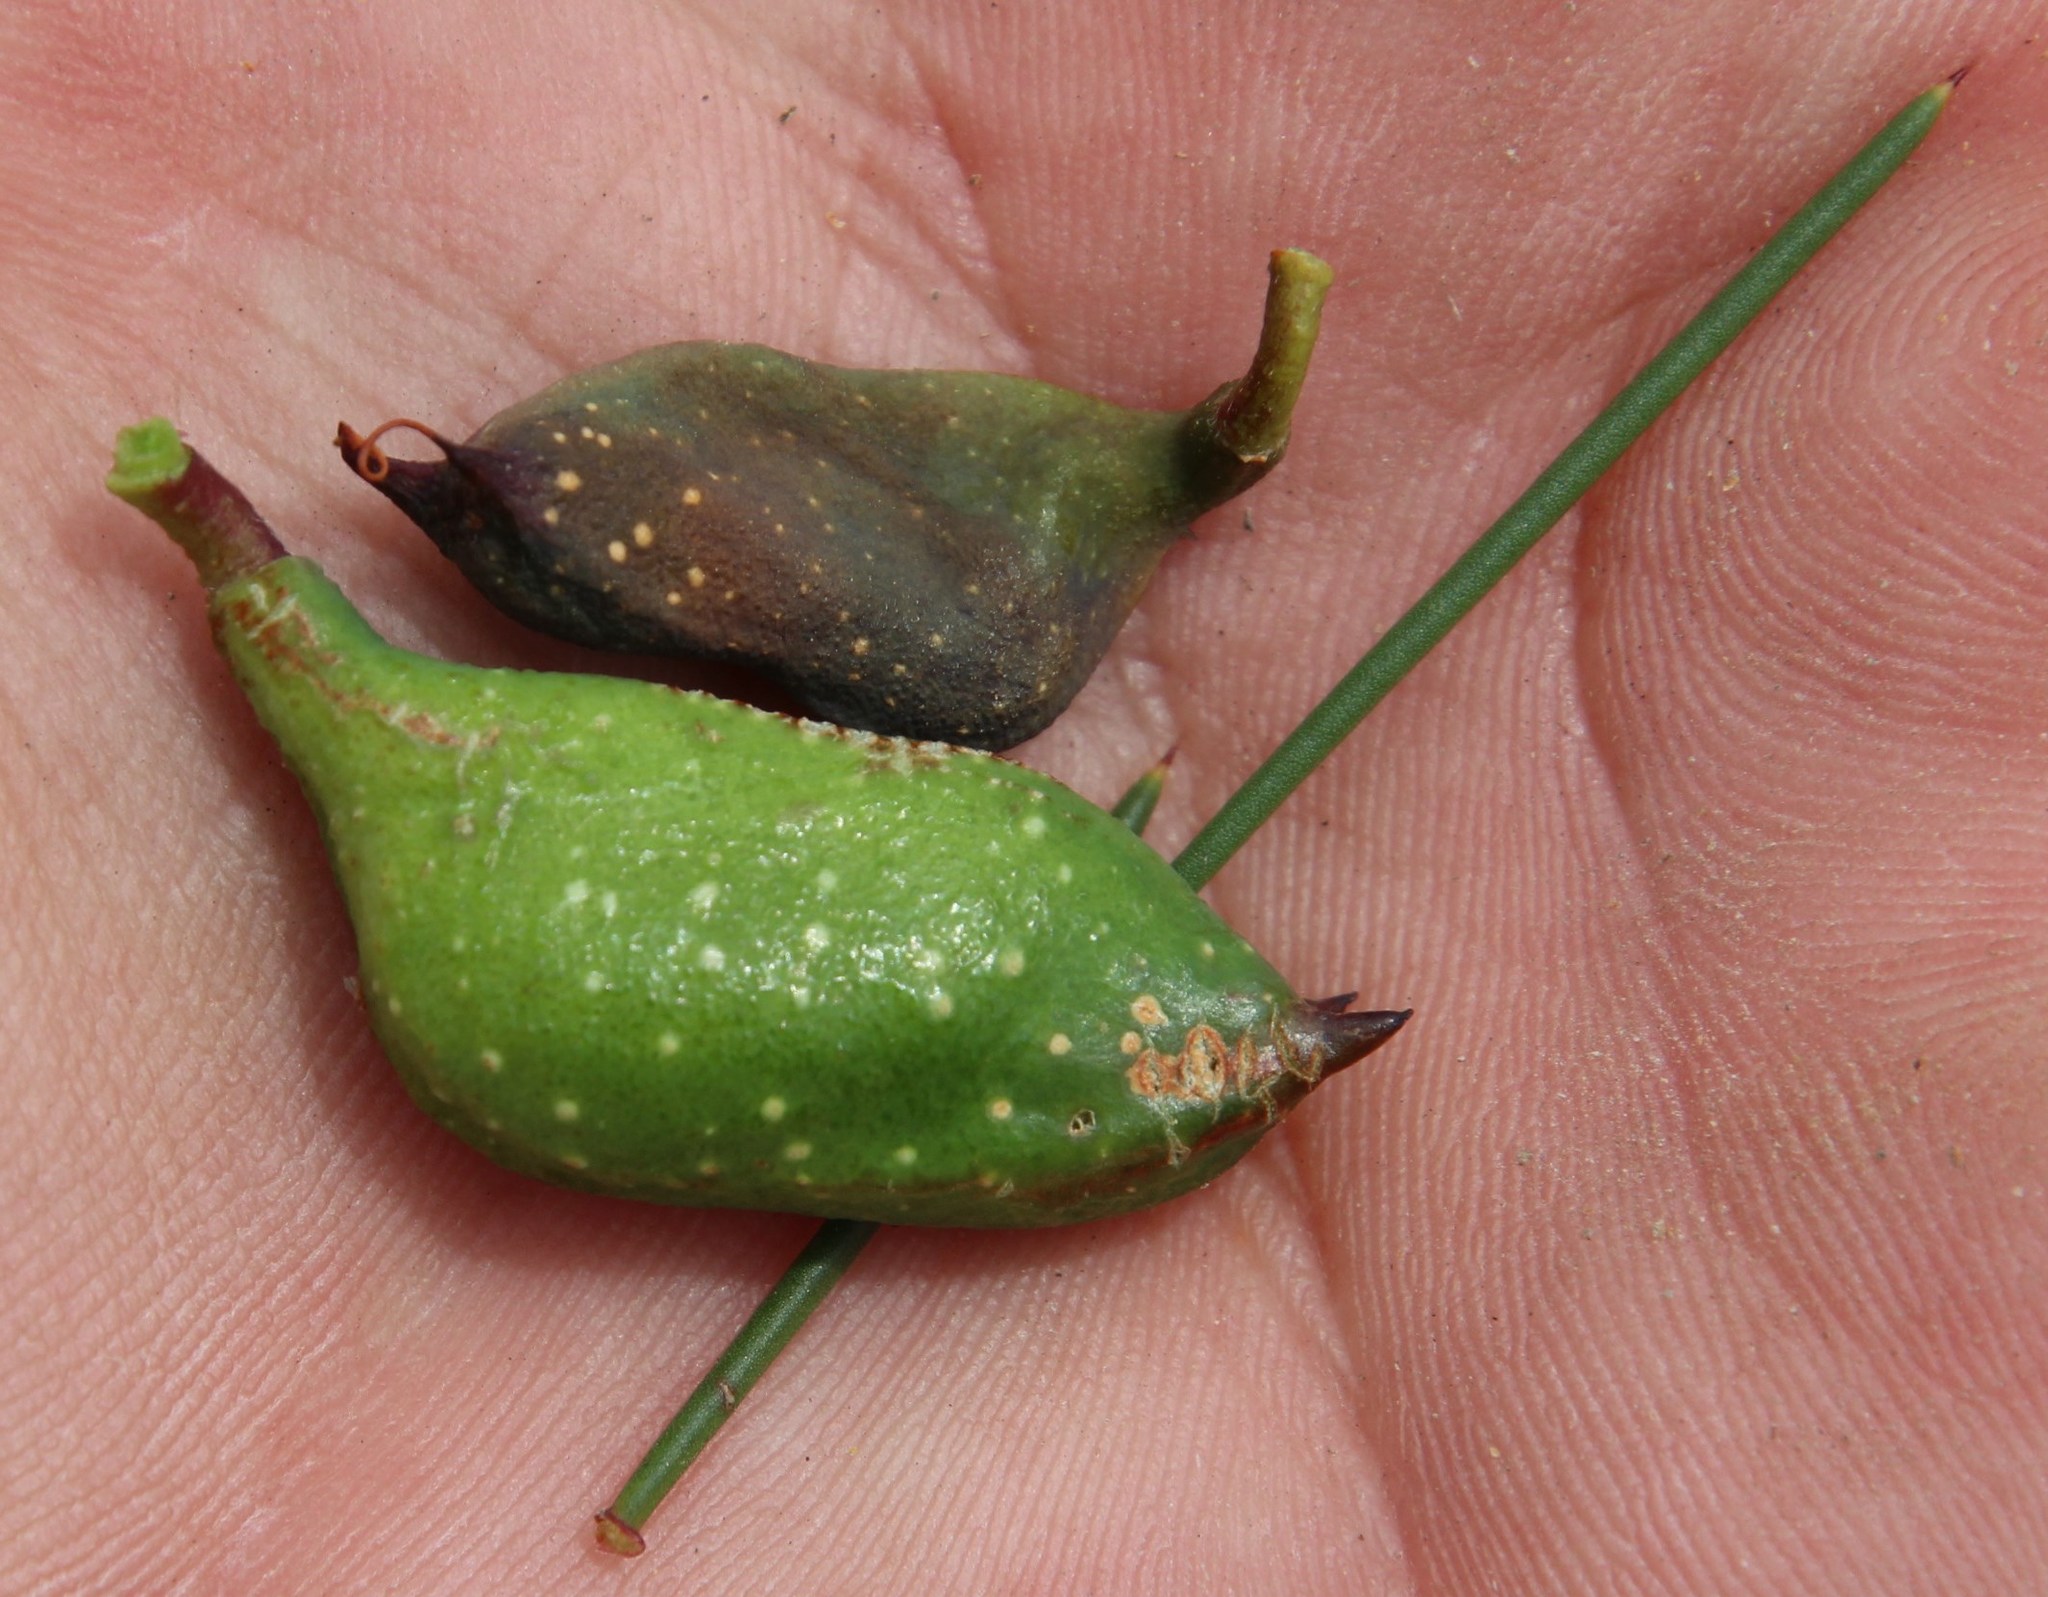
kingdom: Plantae
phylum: Tracheophyta
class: Magnoliopsida
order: Proteales
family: Proteaceae
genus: Hakea
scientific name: Hakea sericea
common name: Needle bush
